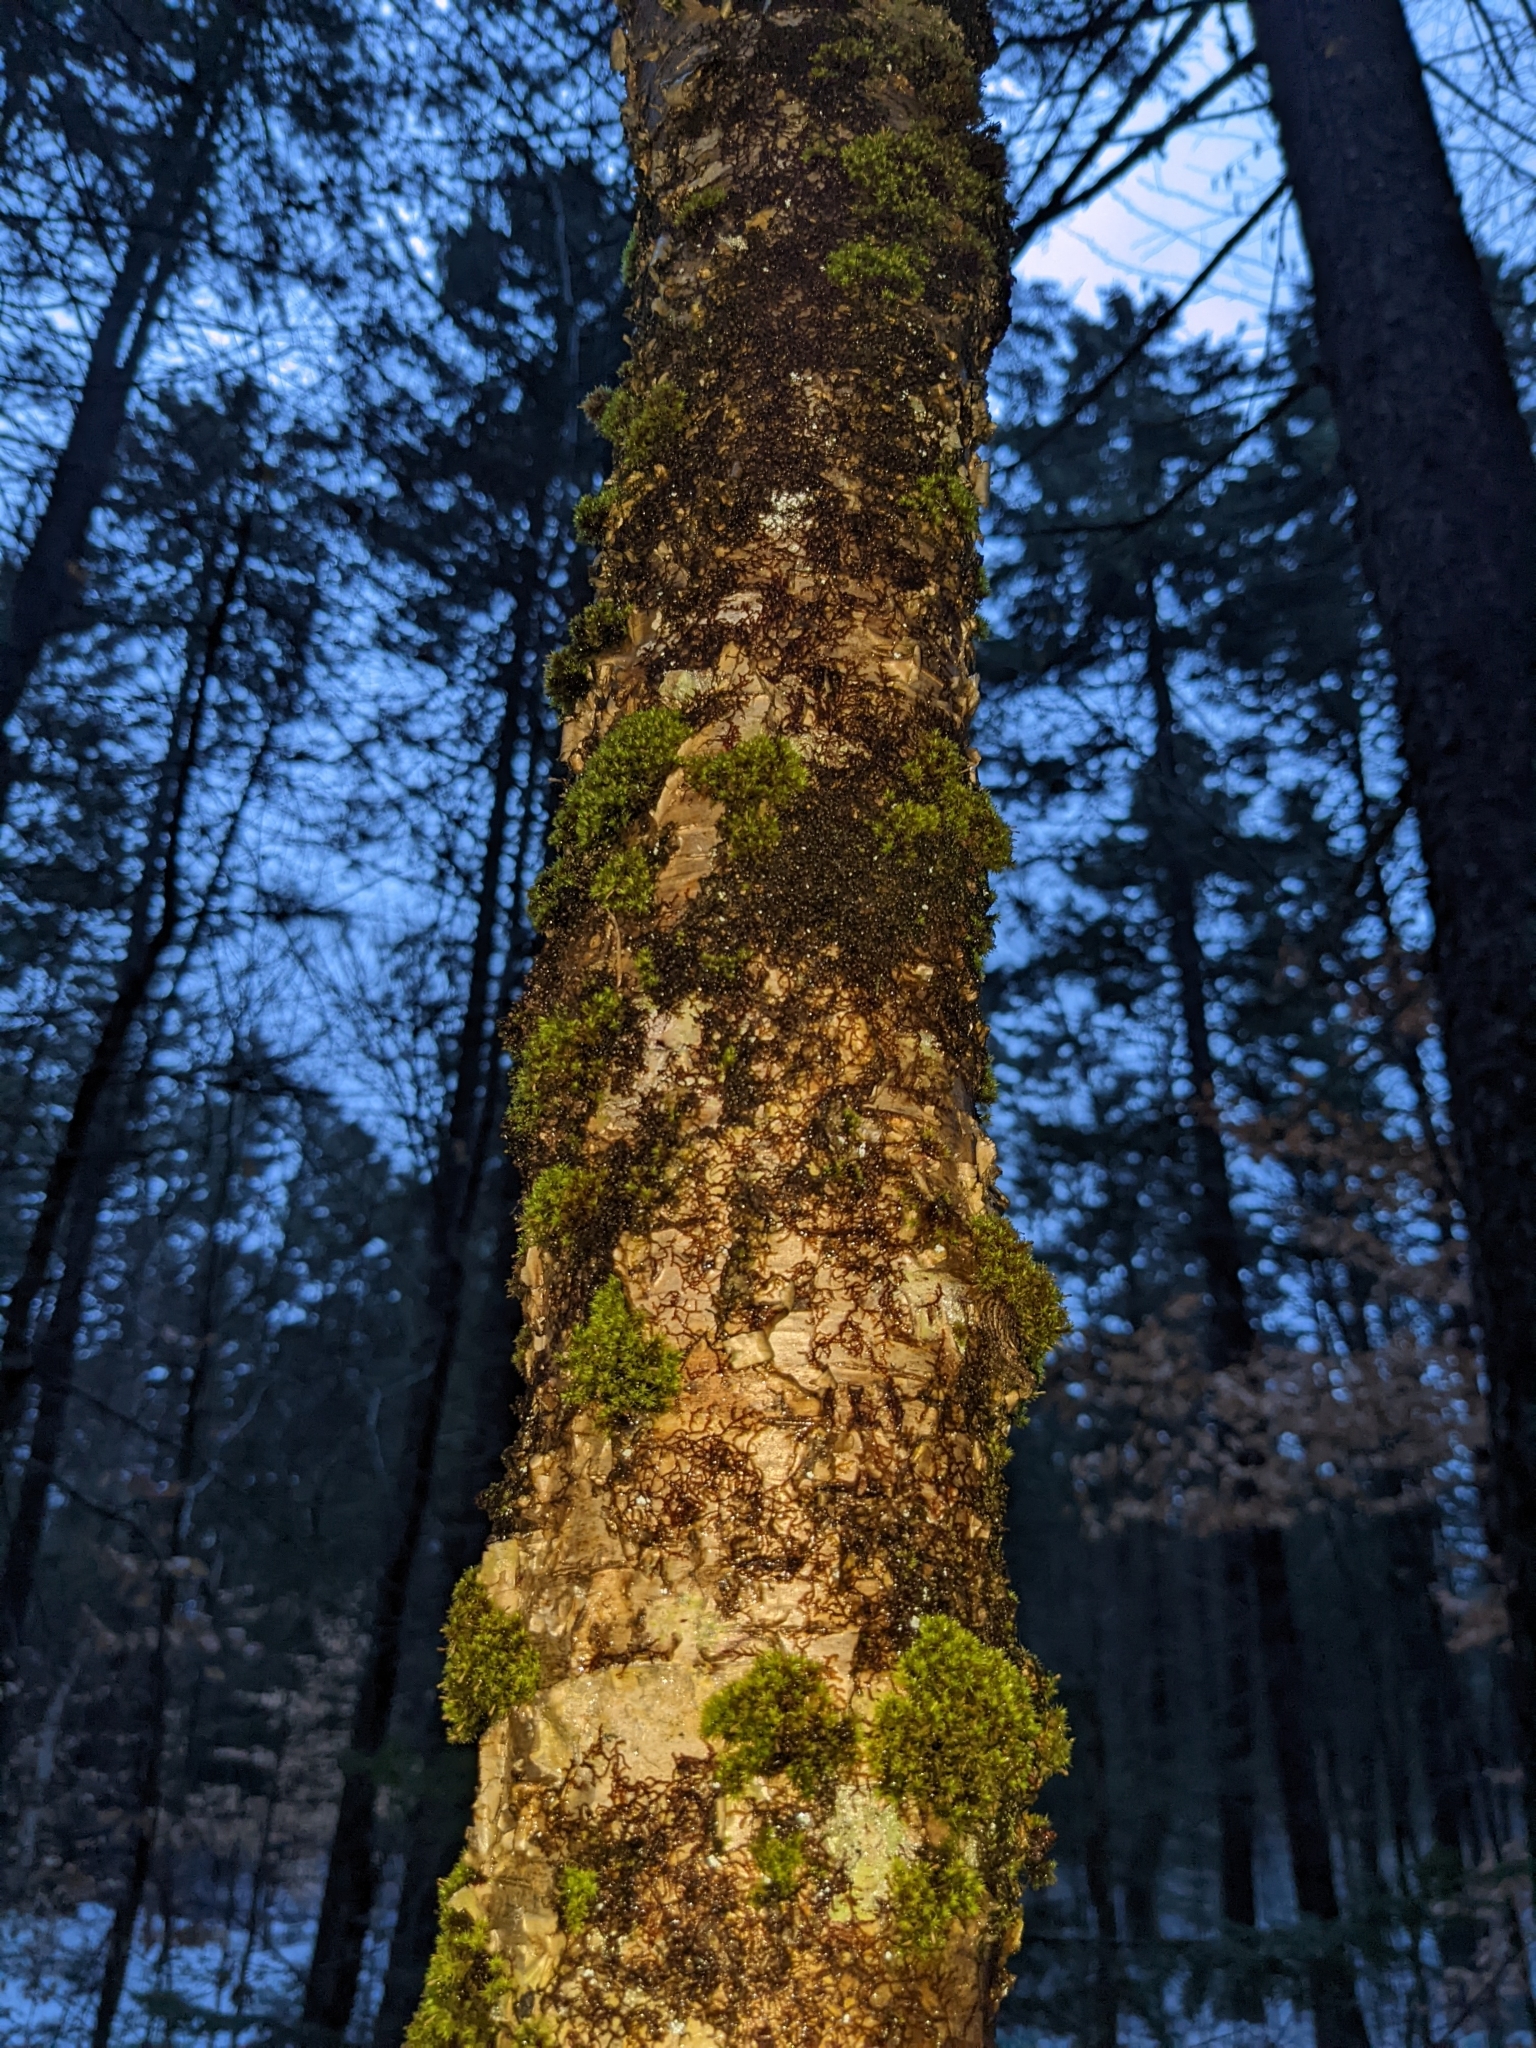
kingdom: Plantae
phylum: Bryophyta
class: Bryopsida
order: Orthotrichales
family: Orthotrichaceae
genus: Ulota
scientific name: Ulota crispa
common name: Crisped pincushion moss
